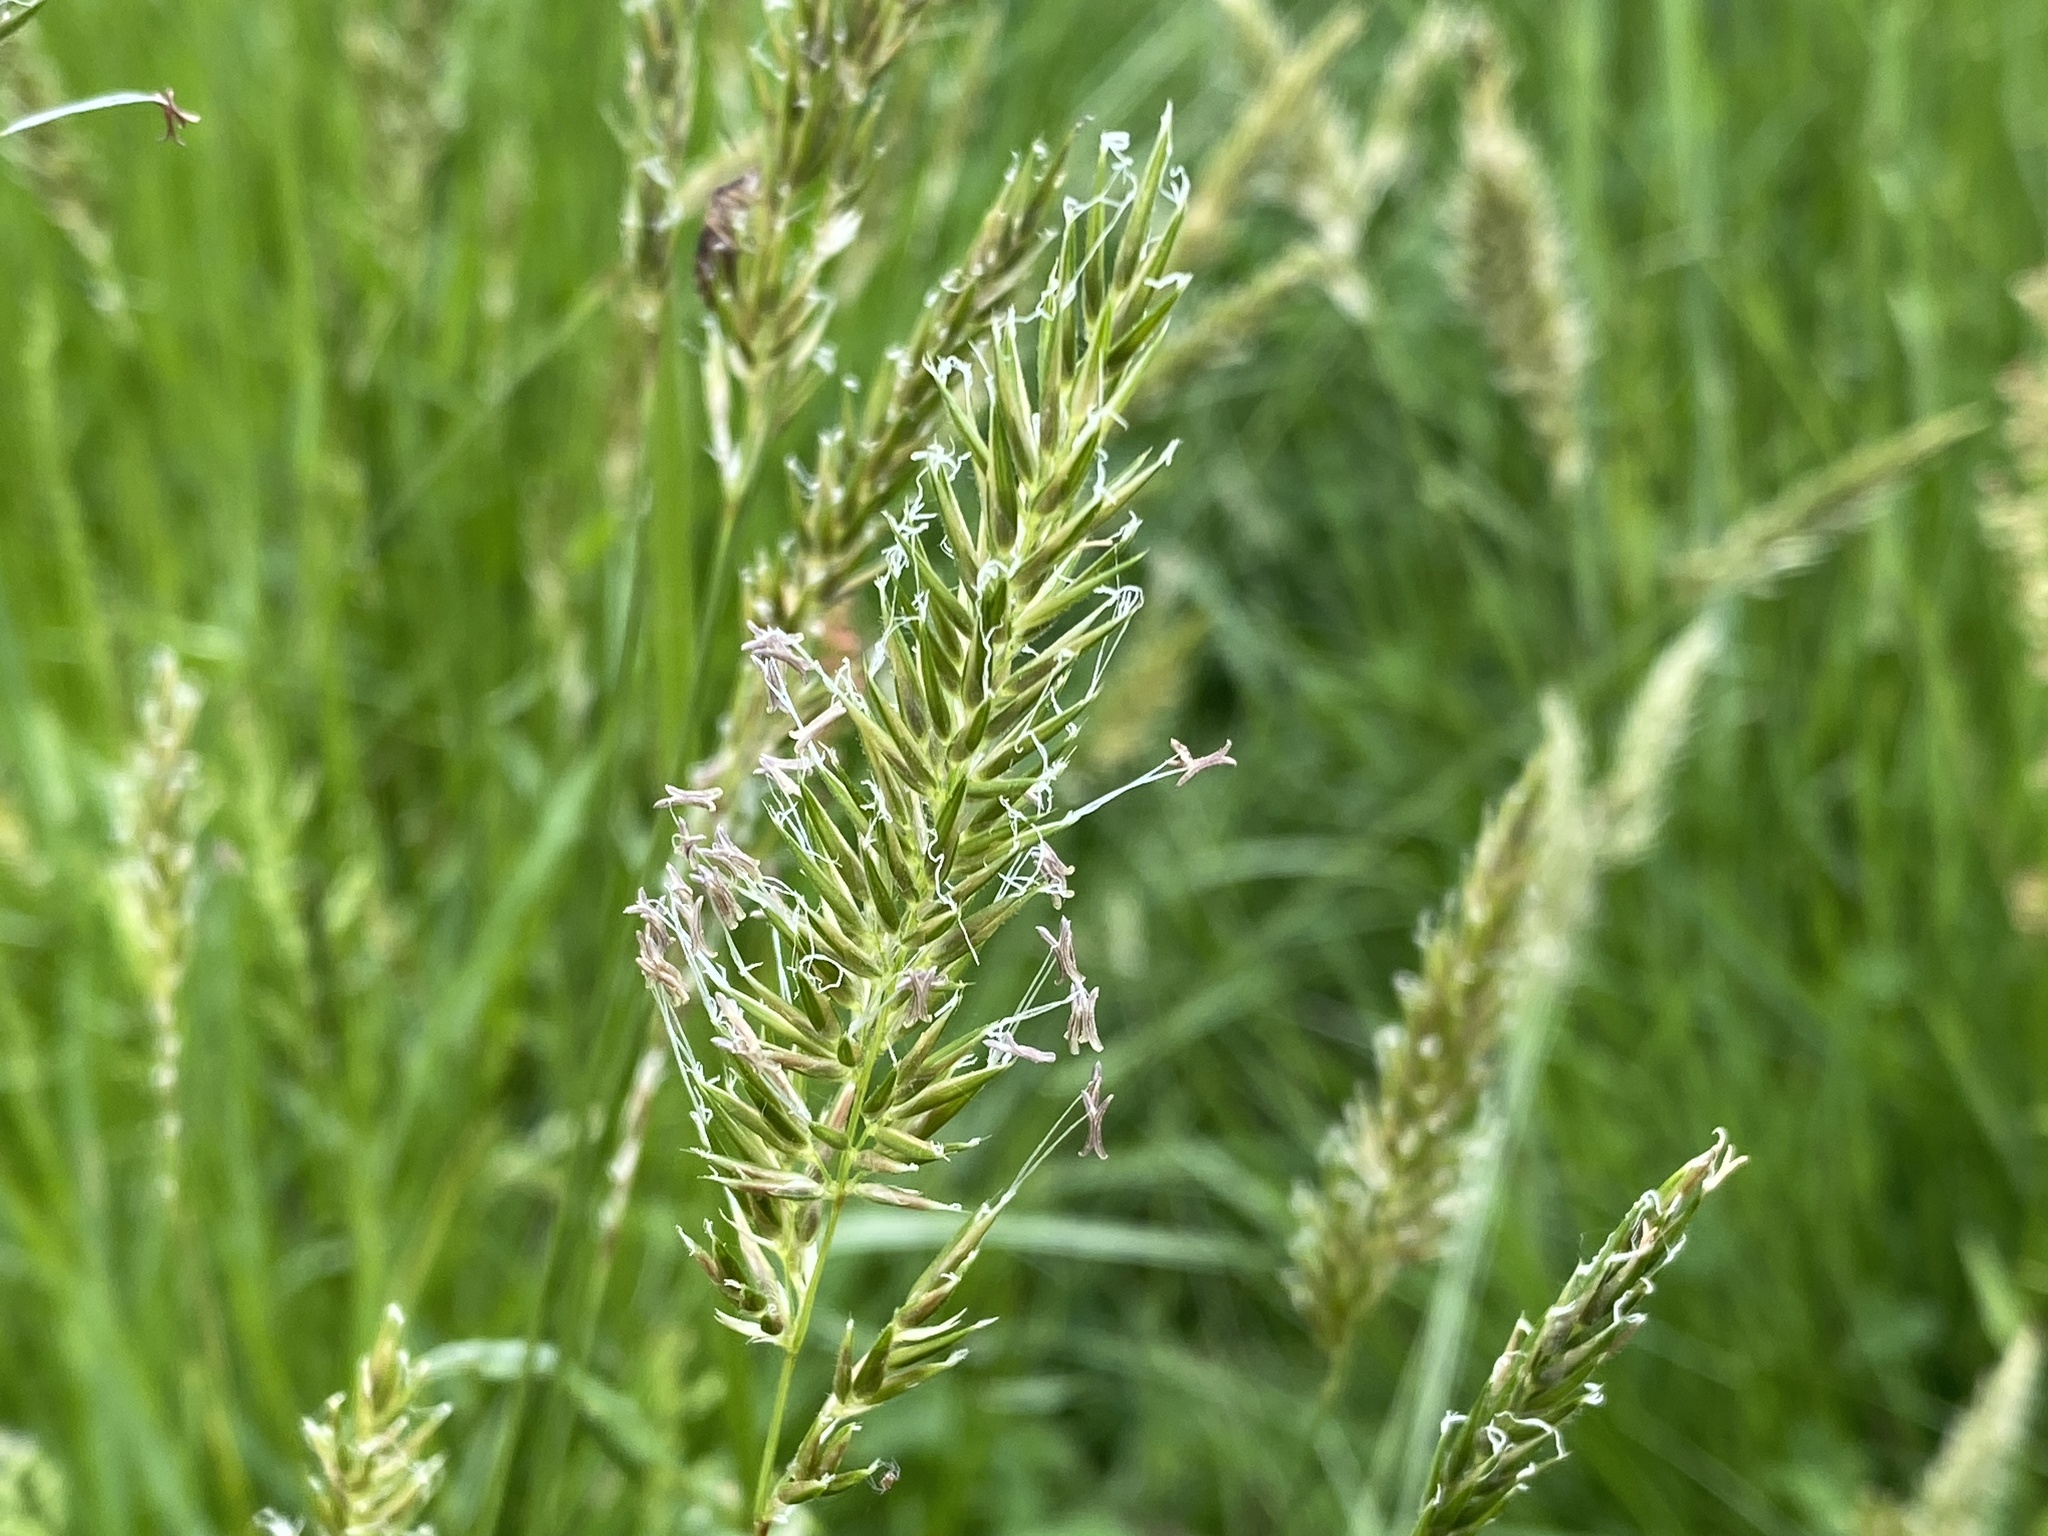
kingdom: Plantae
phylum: Tracheophyta
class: Liliopsida
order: Poales
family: Poaceae
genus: Anthoxanthum
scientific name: Anthoxanthum odoratum
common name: Sweet vernalgrass
